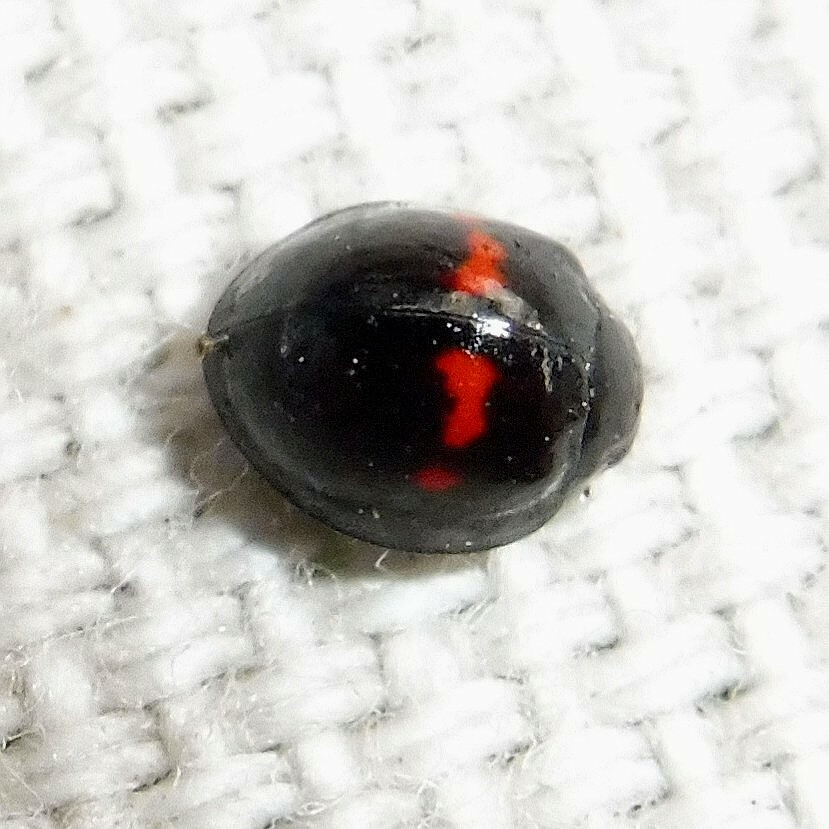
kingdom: Animalia
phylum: Arthropoda
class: Insecta
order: Coleoptera
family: Coccinellidae
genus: Chilocorus
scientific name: Chilocorus bipustulatus
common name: Heather ladybird
